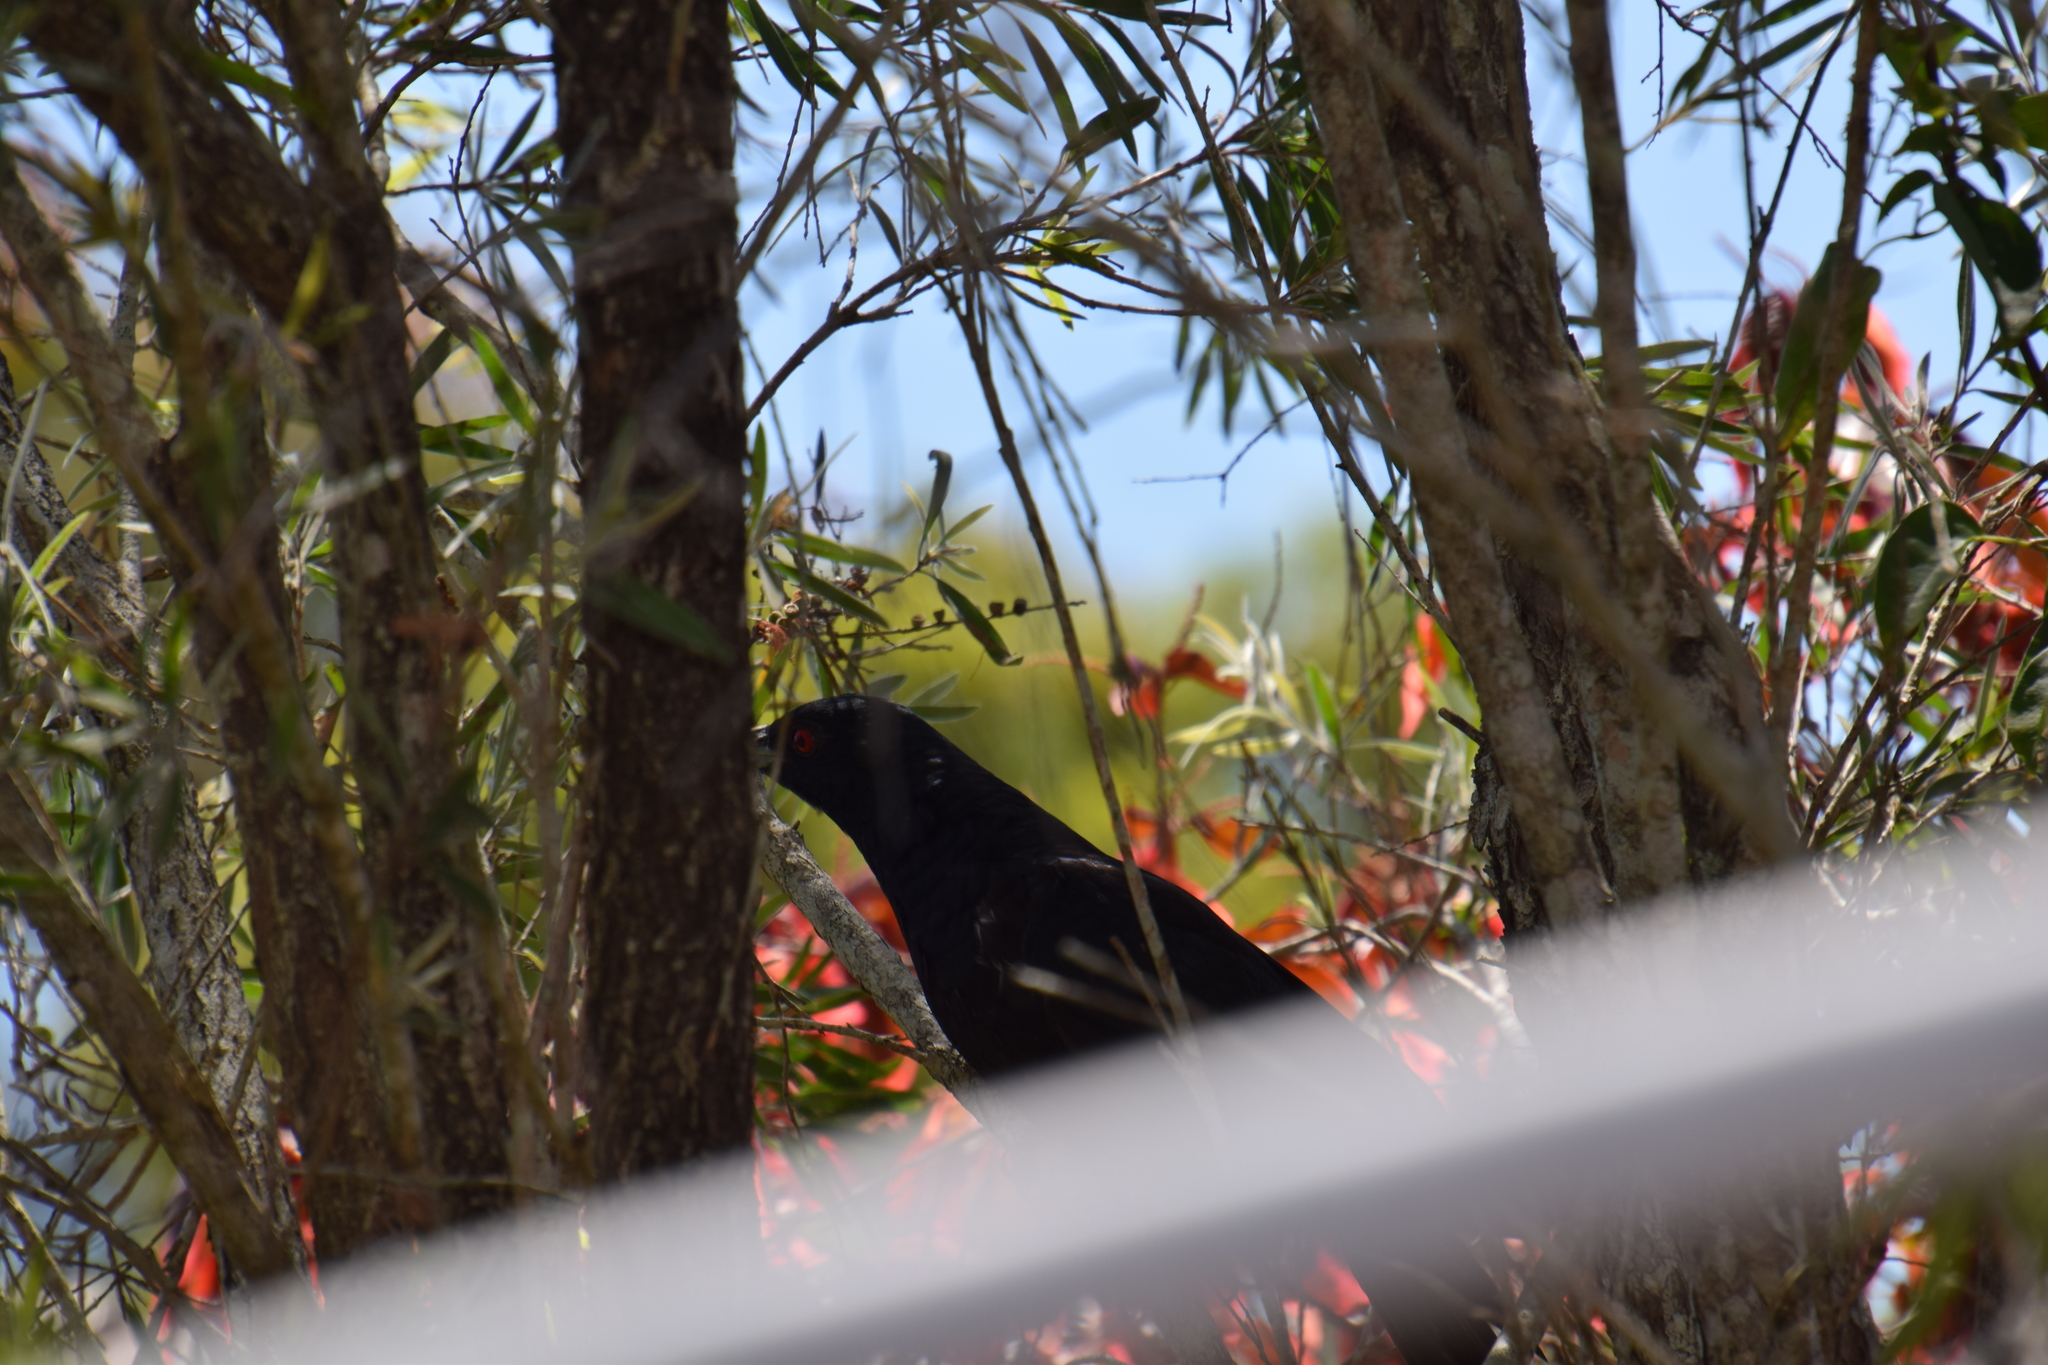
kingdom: Animalia
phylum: Chordata
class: Aves
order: Cuculiformes
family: Cuculidae
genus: Eudynamys
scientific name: Eudynamys orientalis
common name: Pacific koel
